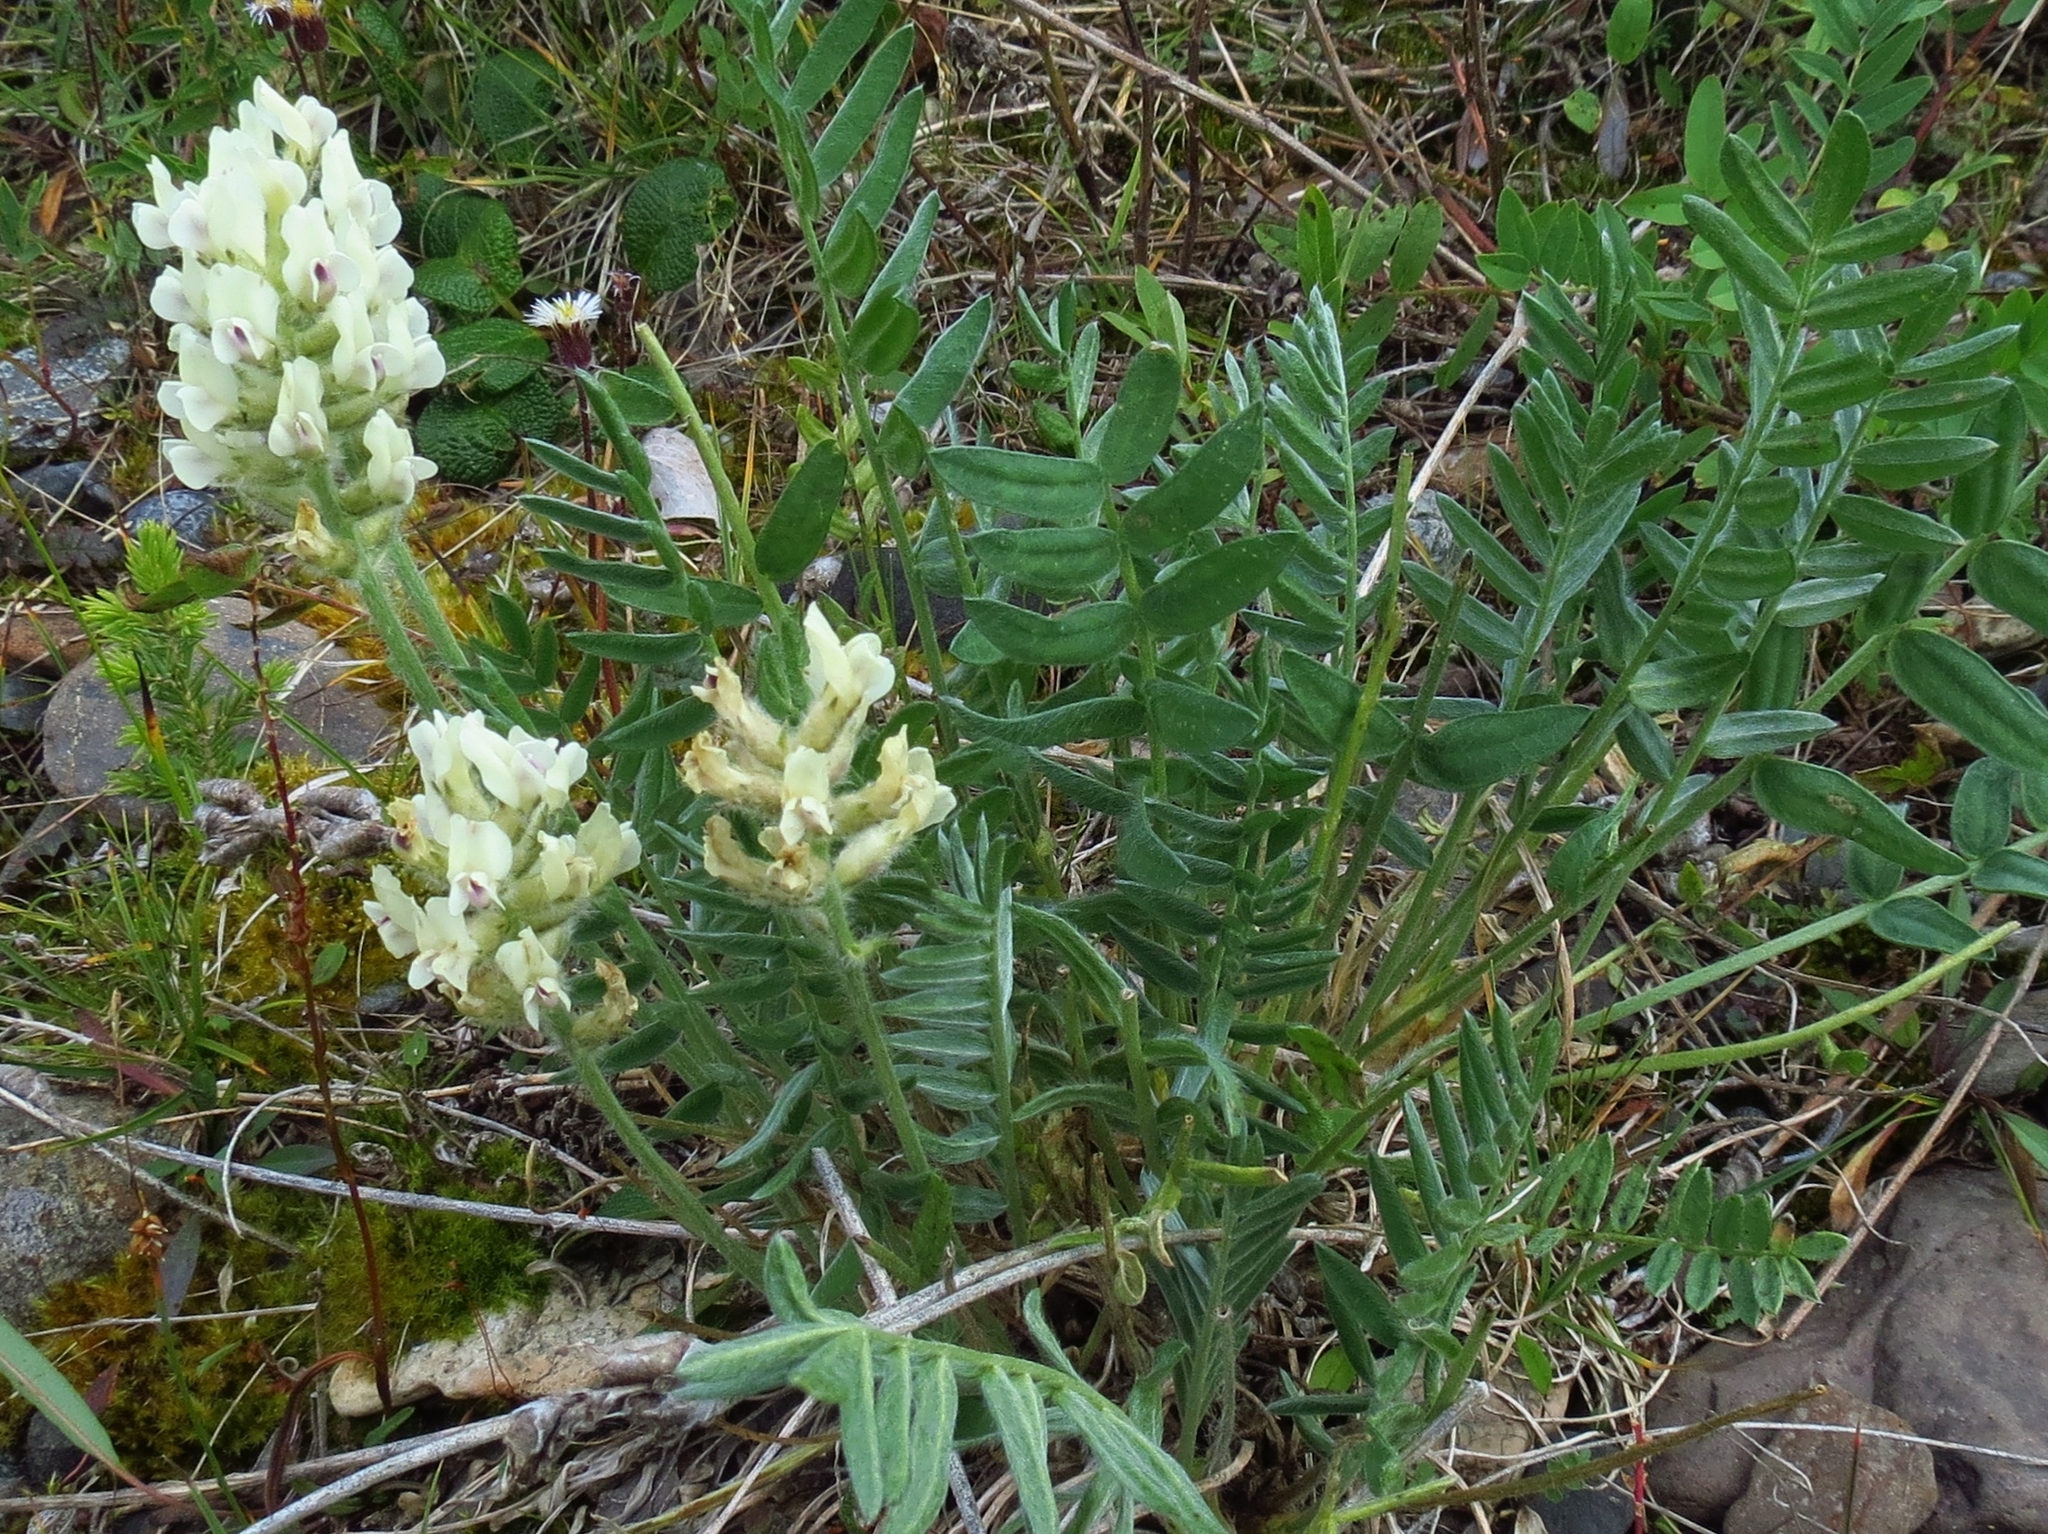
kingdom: Plantae
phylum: Tracheophyta
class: Magnoliopsida
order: Fabales
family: Fabaceae
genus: Oxytropis
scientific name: Oxytropis campestris
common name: Field locoweed
